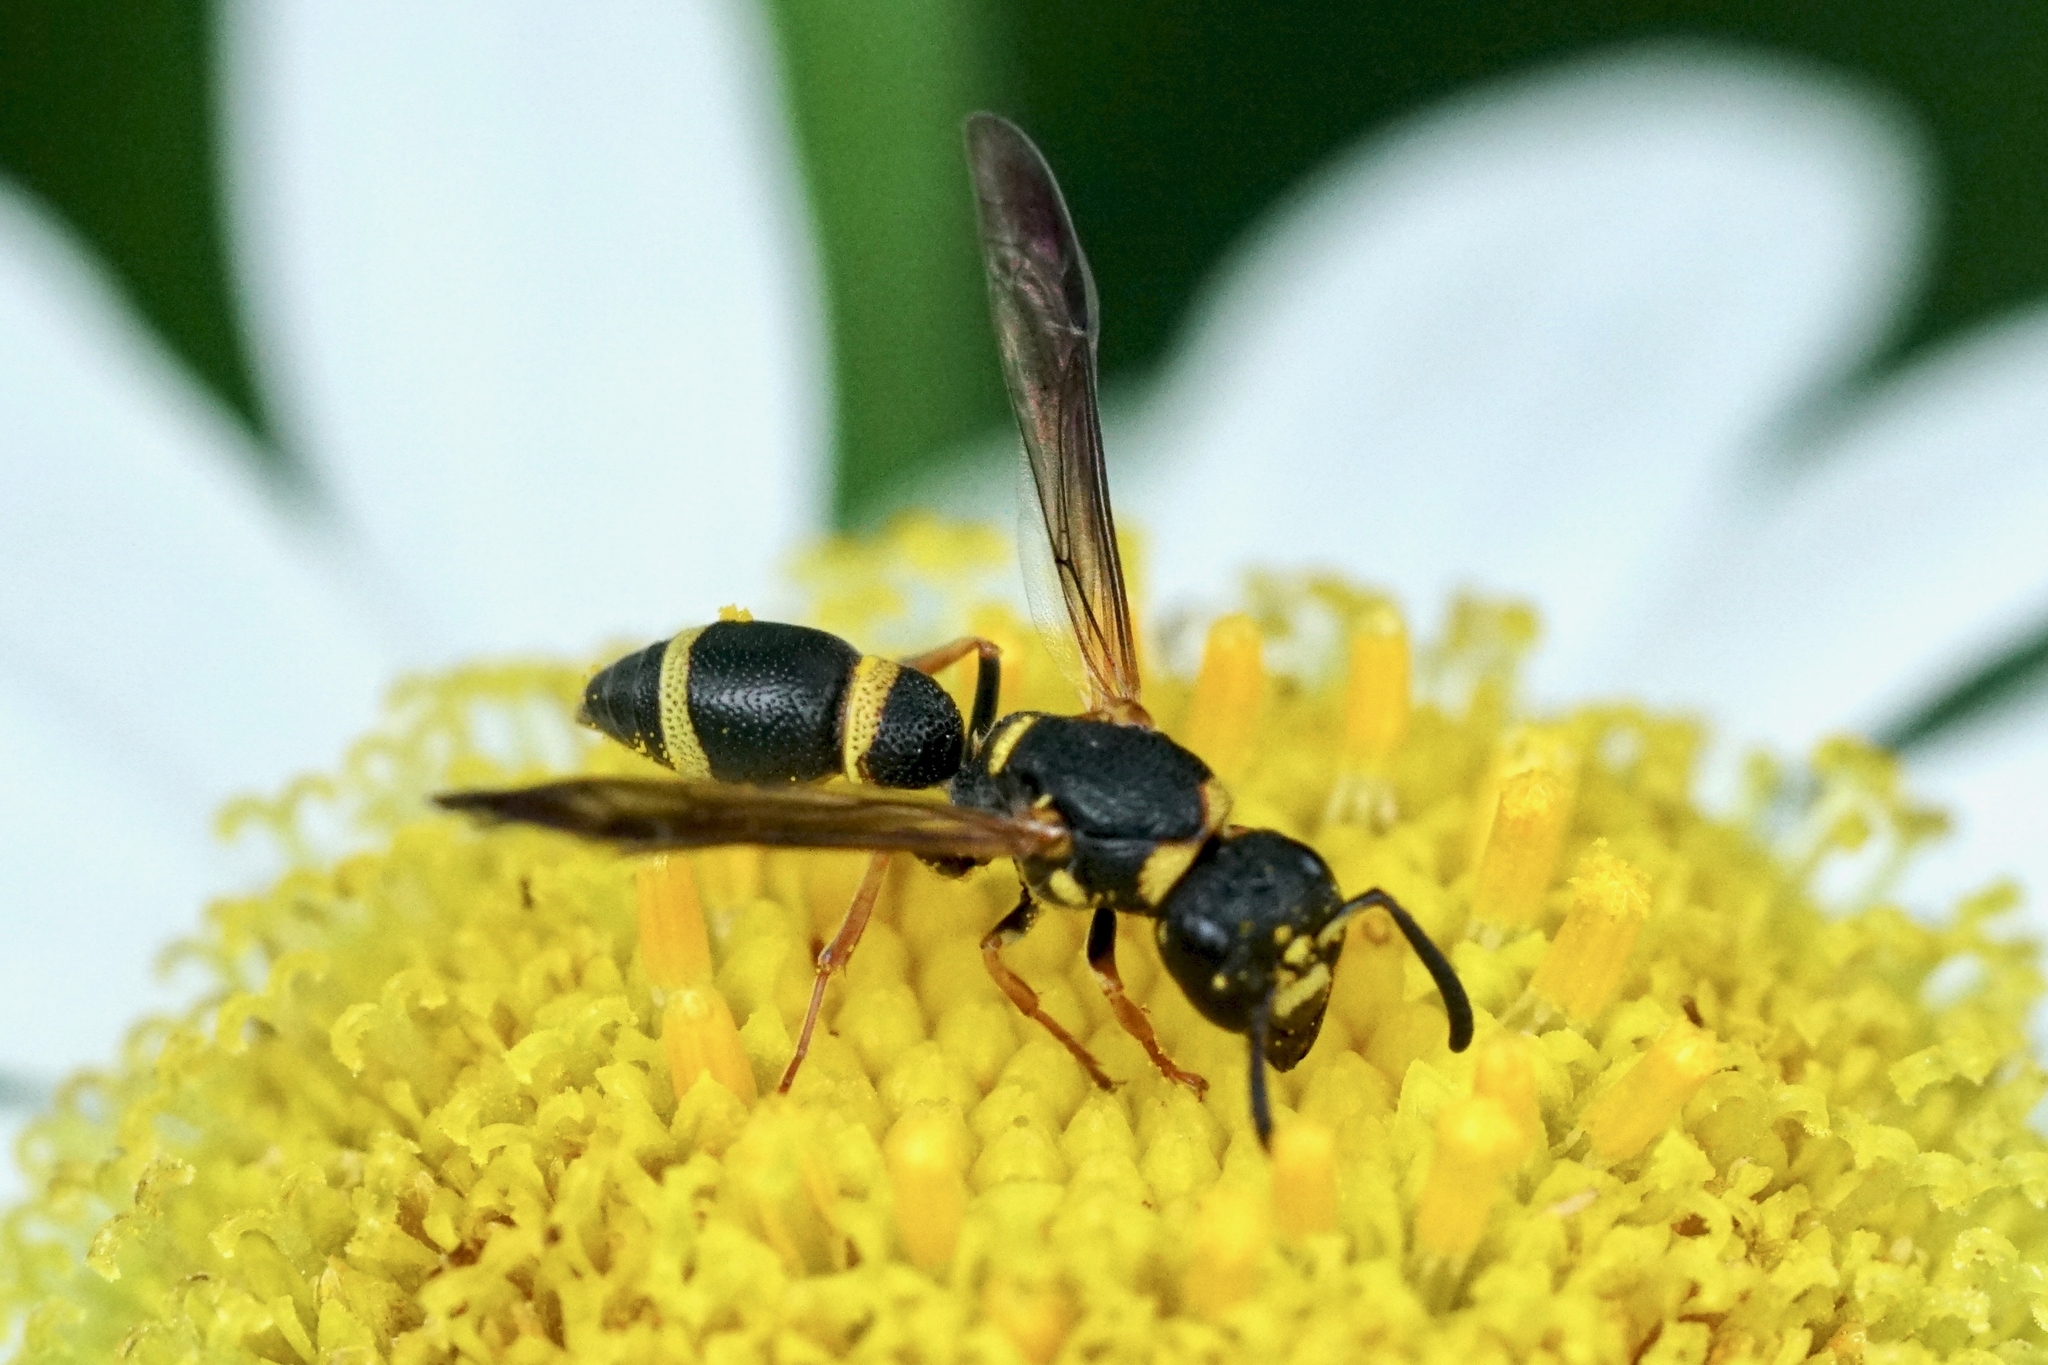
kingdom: Animalia
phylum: Arthropoda
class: Insecta
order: Hymenoptera
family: Eumenidae
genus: Parancistrocerus
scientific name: Parancistrocerus perennis
